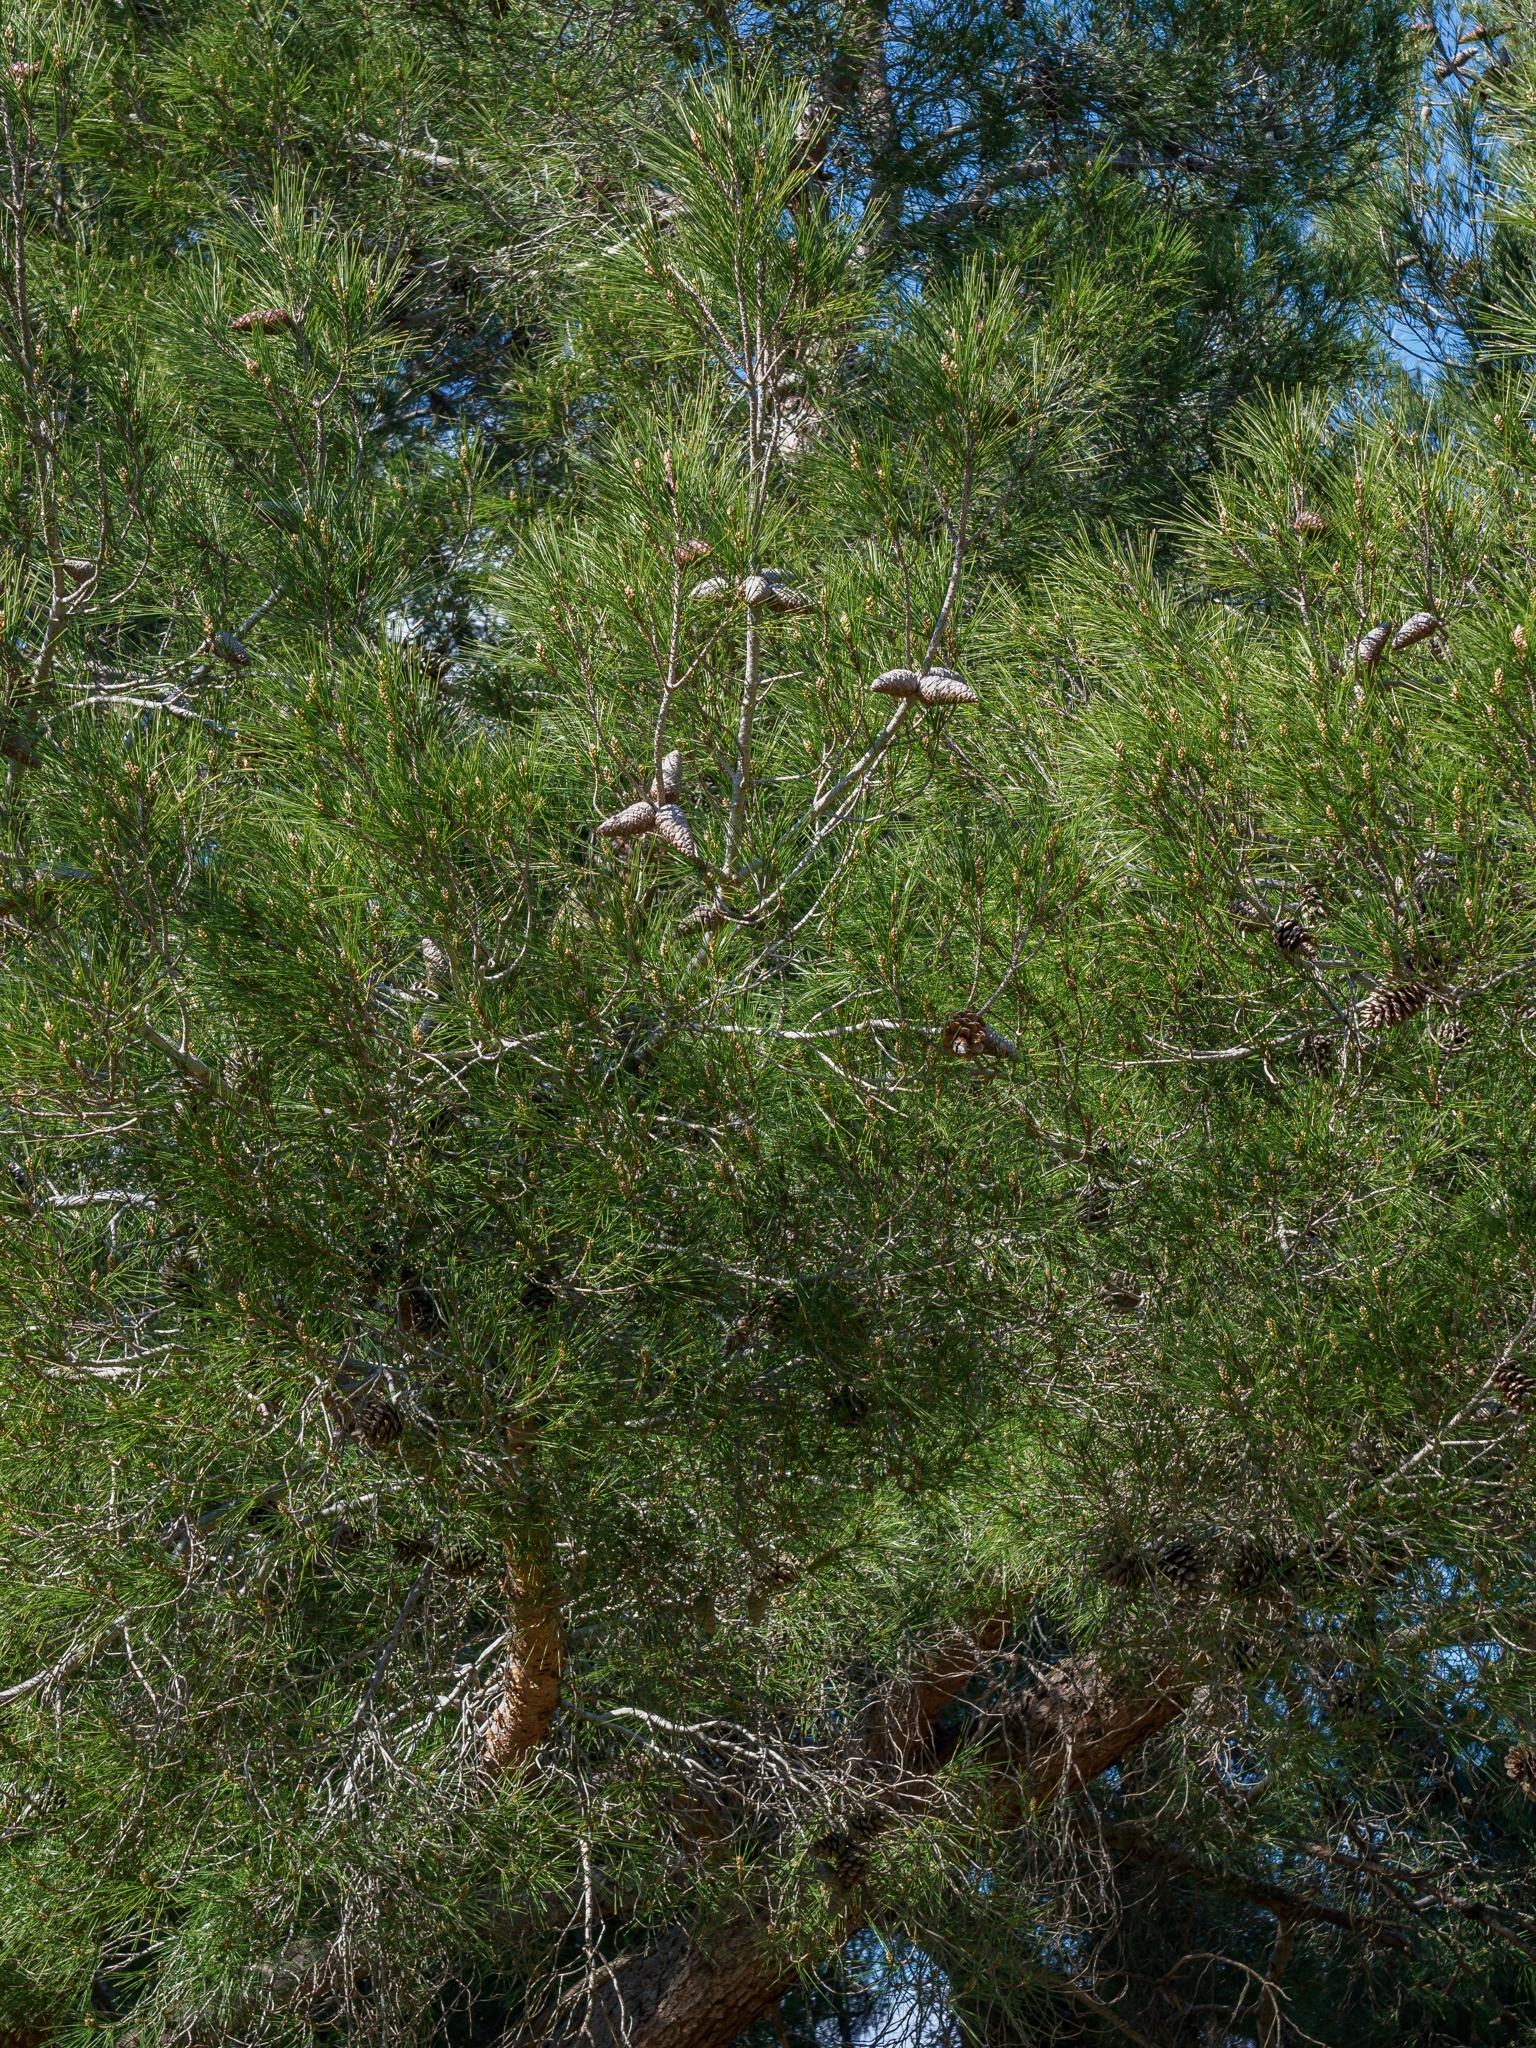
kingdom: Plantae
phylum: Tracheophyta
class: Pinopsida
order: Pinales
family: Pinaceae
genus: Pinus
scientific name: Pinus brutia
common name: Turkish pine
